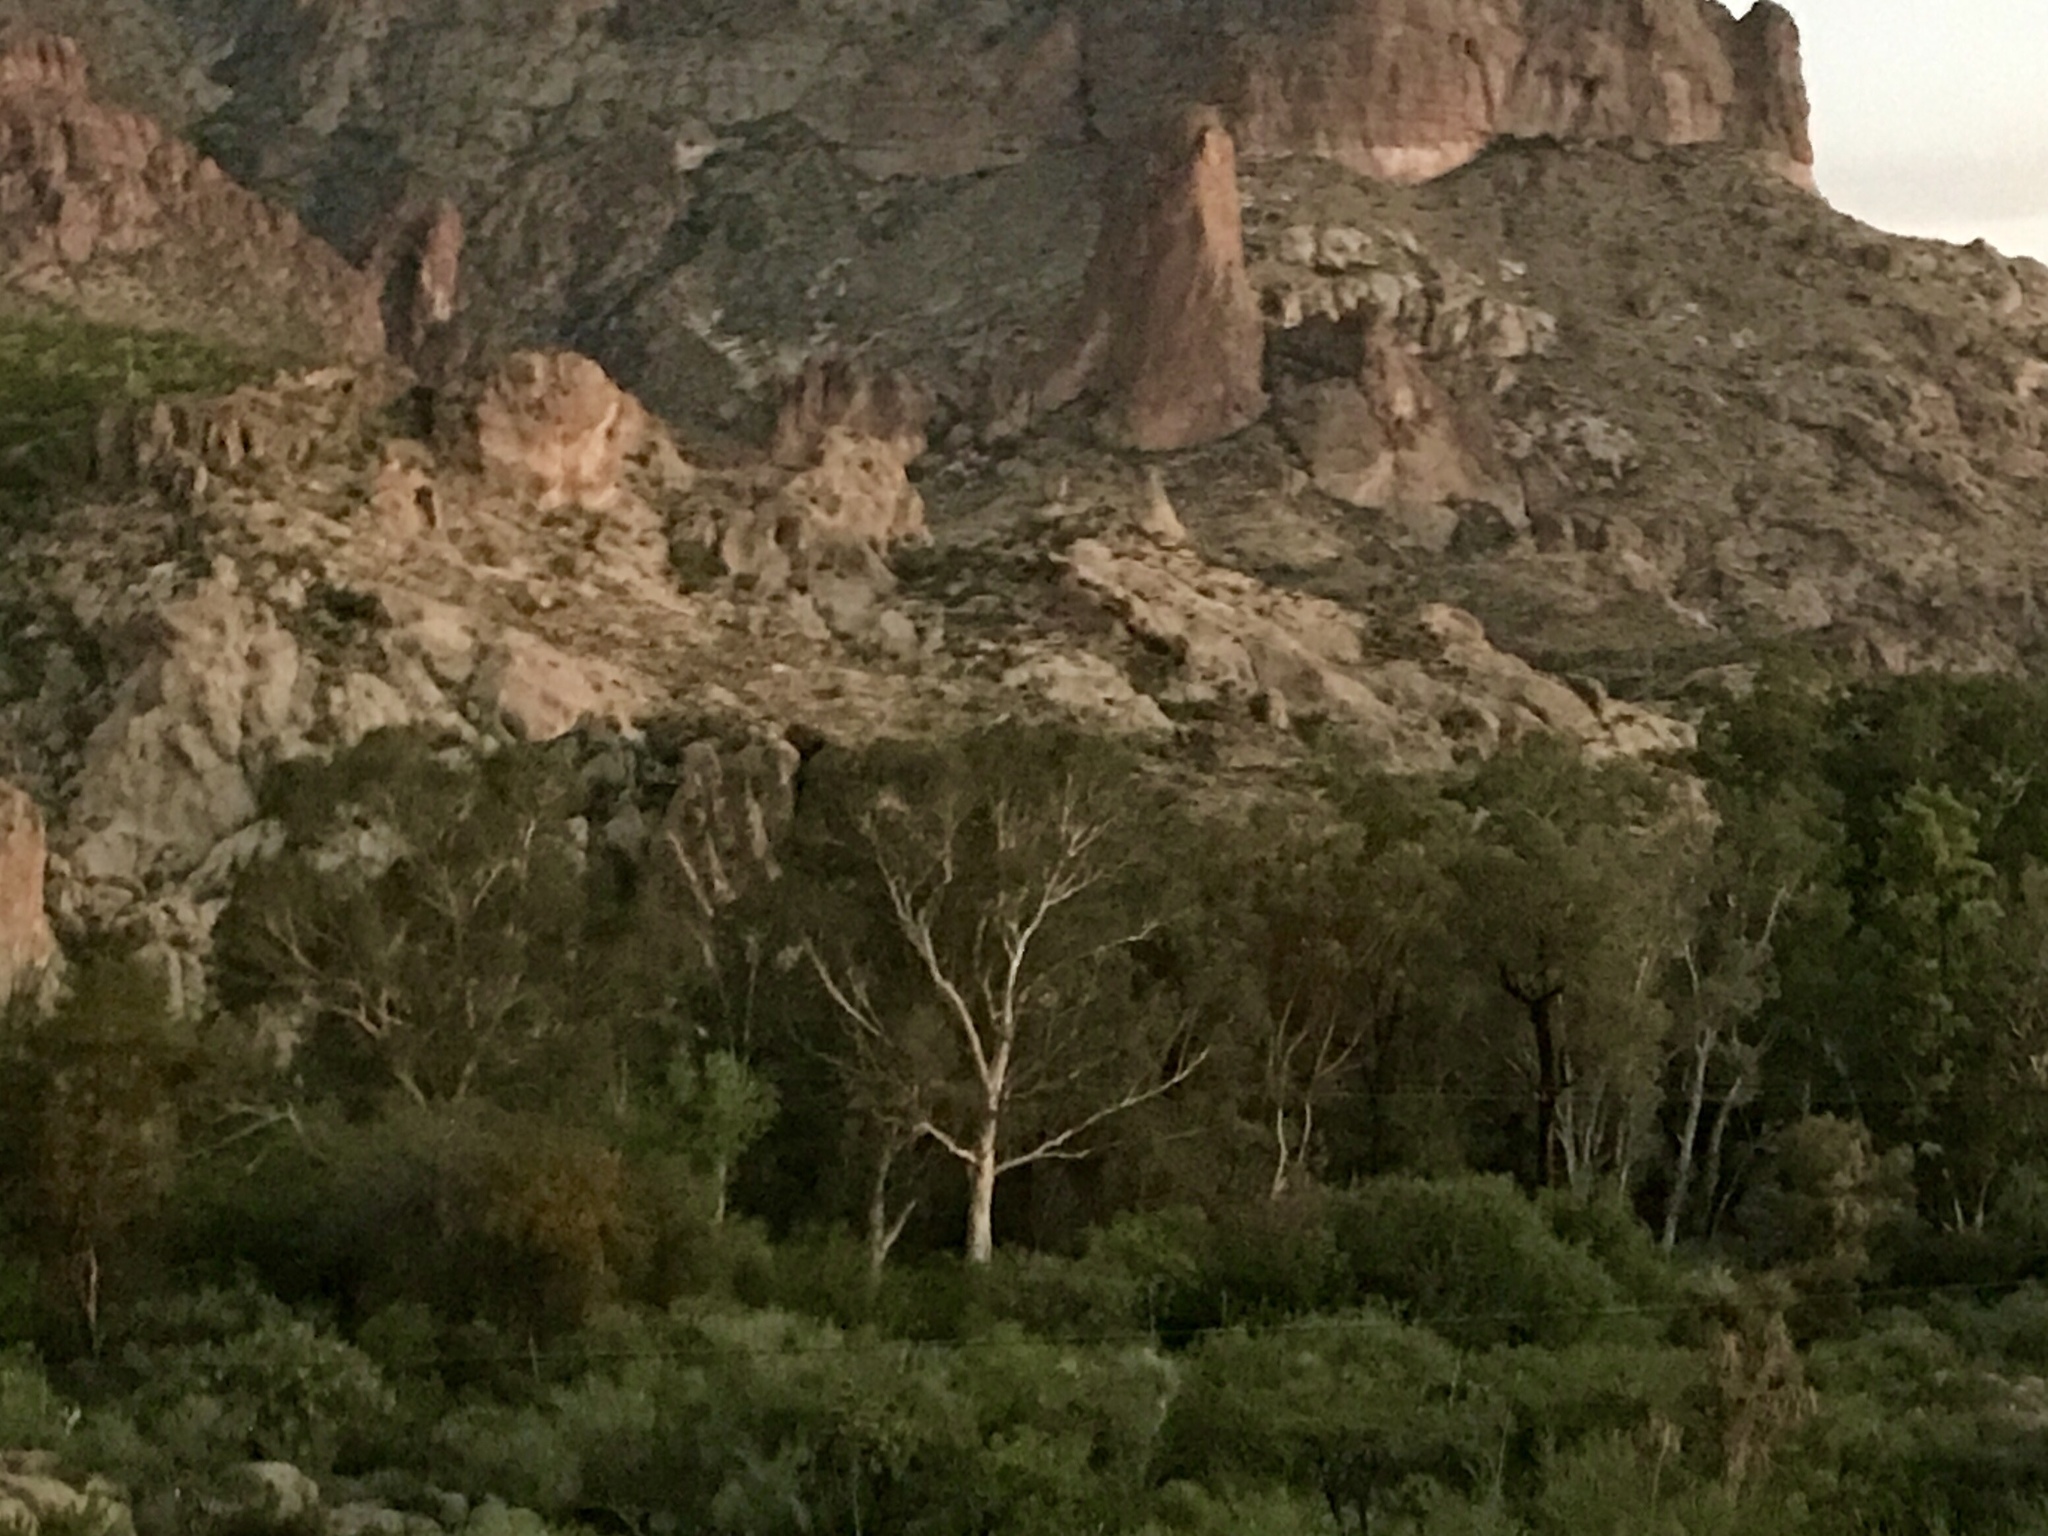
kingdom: Plantae
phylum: Tracheophyta
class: Magnoliopsida
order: Proteales
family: Platanaceae
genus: Platanus
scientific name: Platanus wrightii
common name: Arizona sycamore
